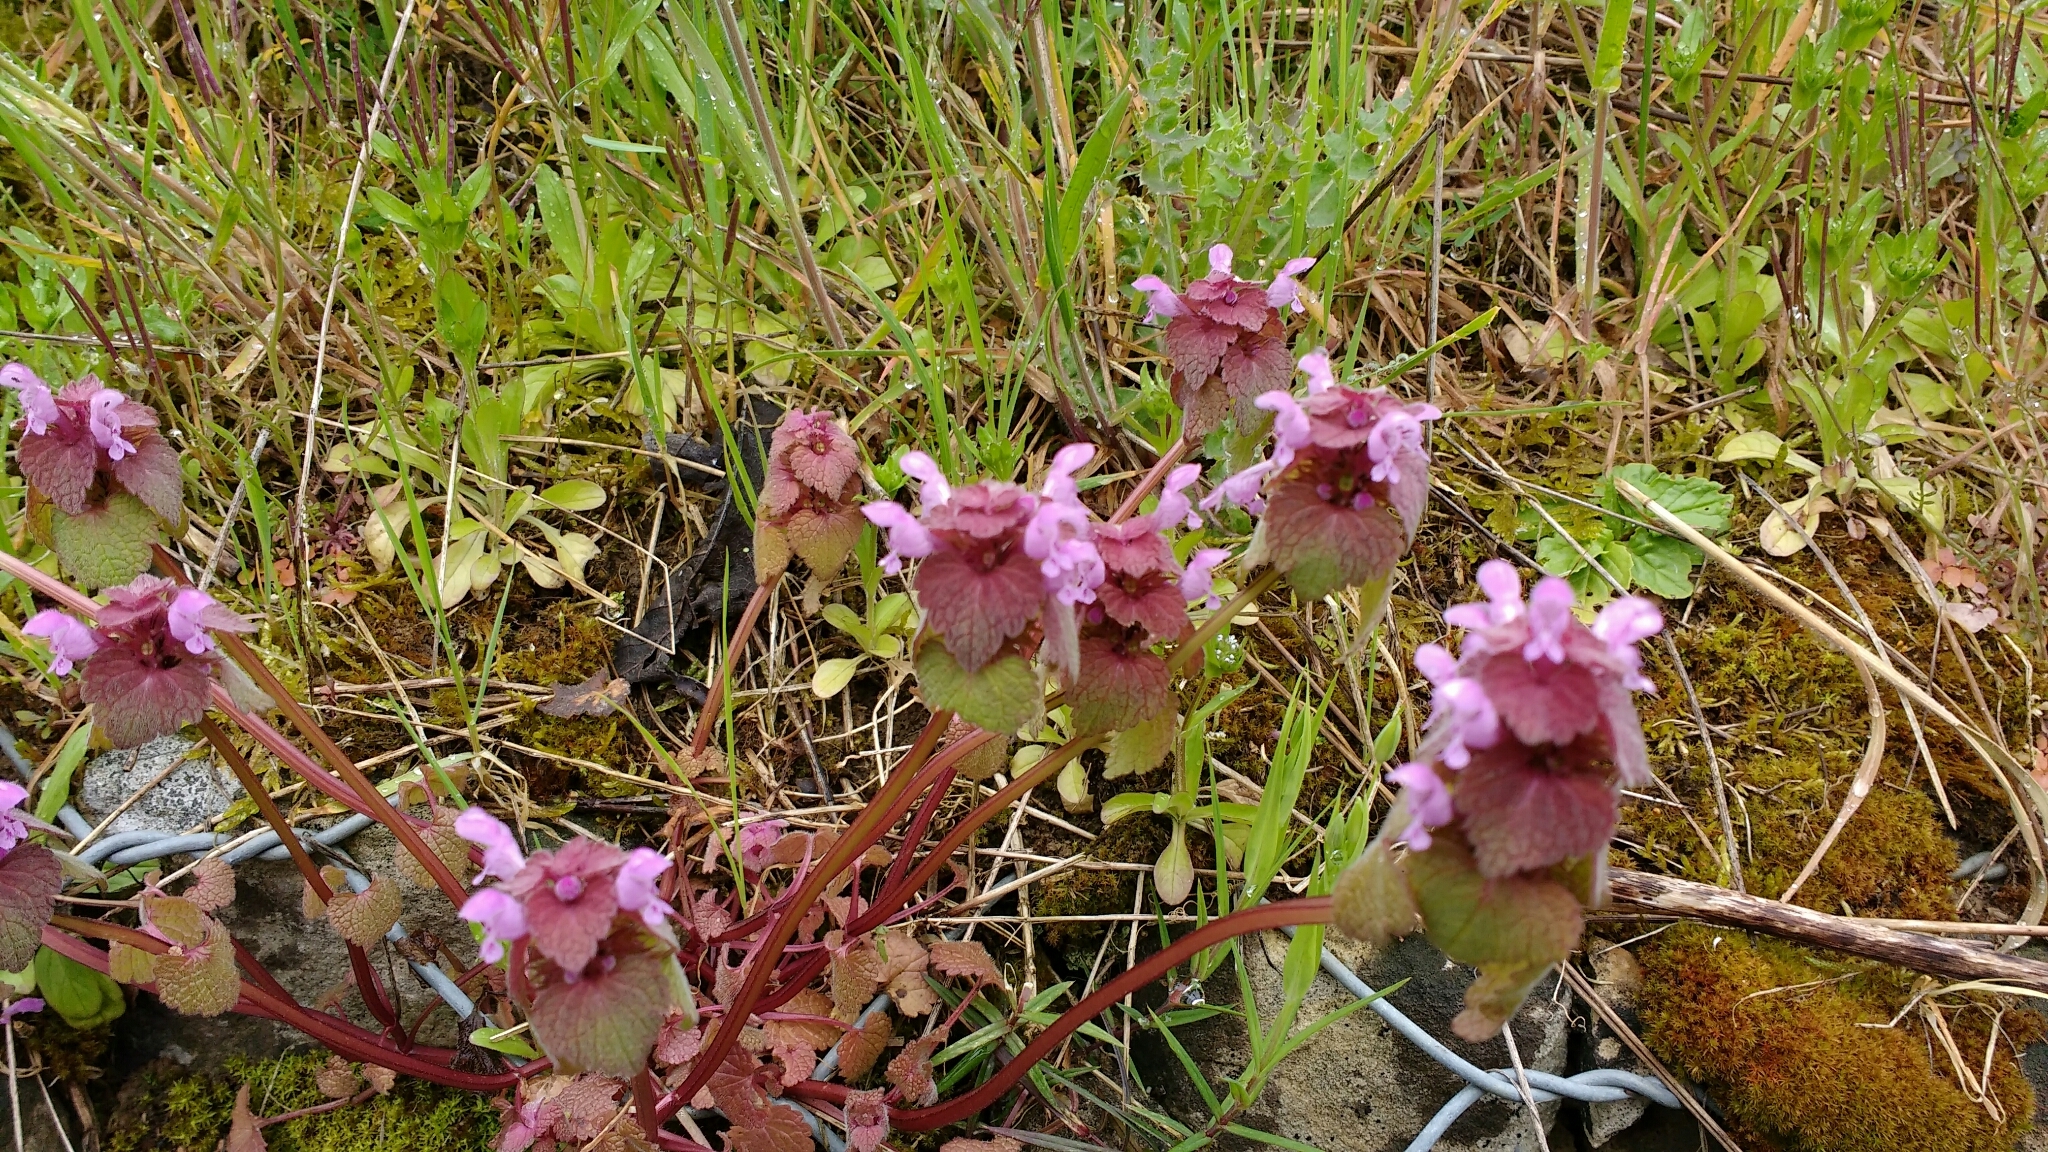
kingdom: Plantae
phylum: Tracheophyta
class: Magnoliopsida
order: Lamiales
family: Lamiaceae
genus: Lamium
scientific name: Lamium purpureum
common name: Red dead-nettle
